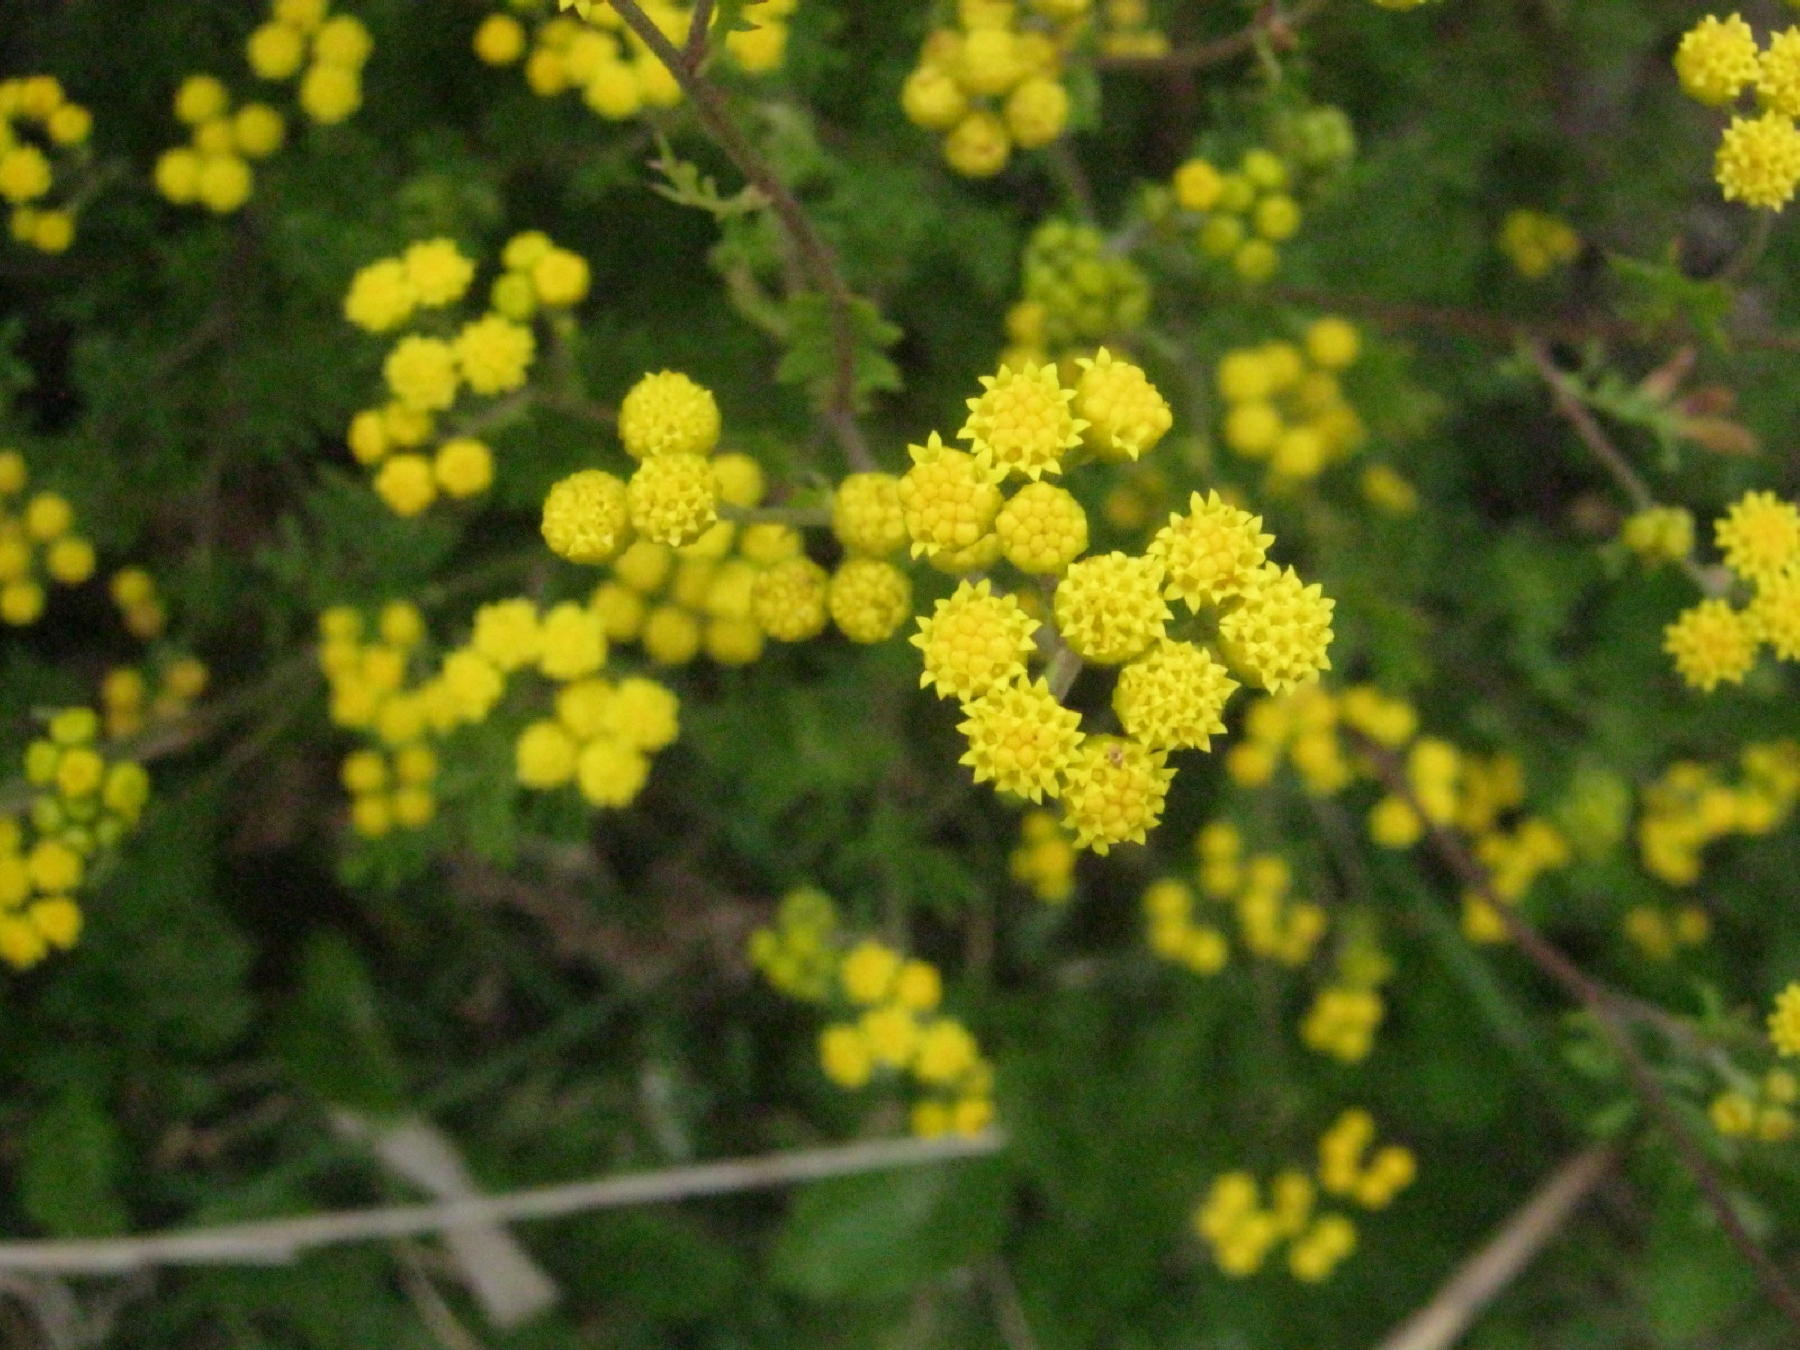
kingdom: Plantae
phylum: Tracheophyta
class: Magnoliopsida
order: Asterales
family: Asteraceae
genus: Hippia
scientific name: Hippia frutescens
